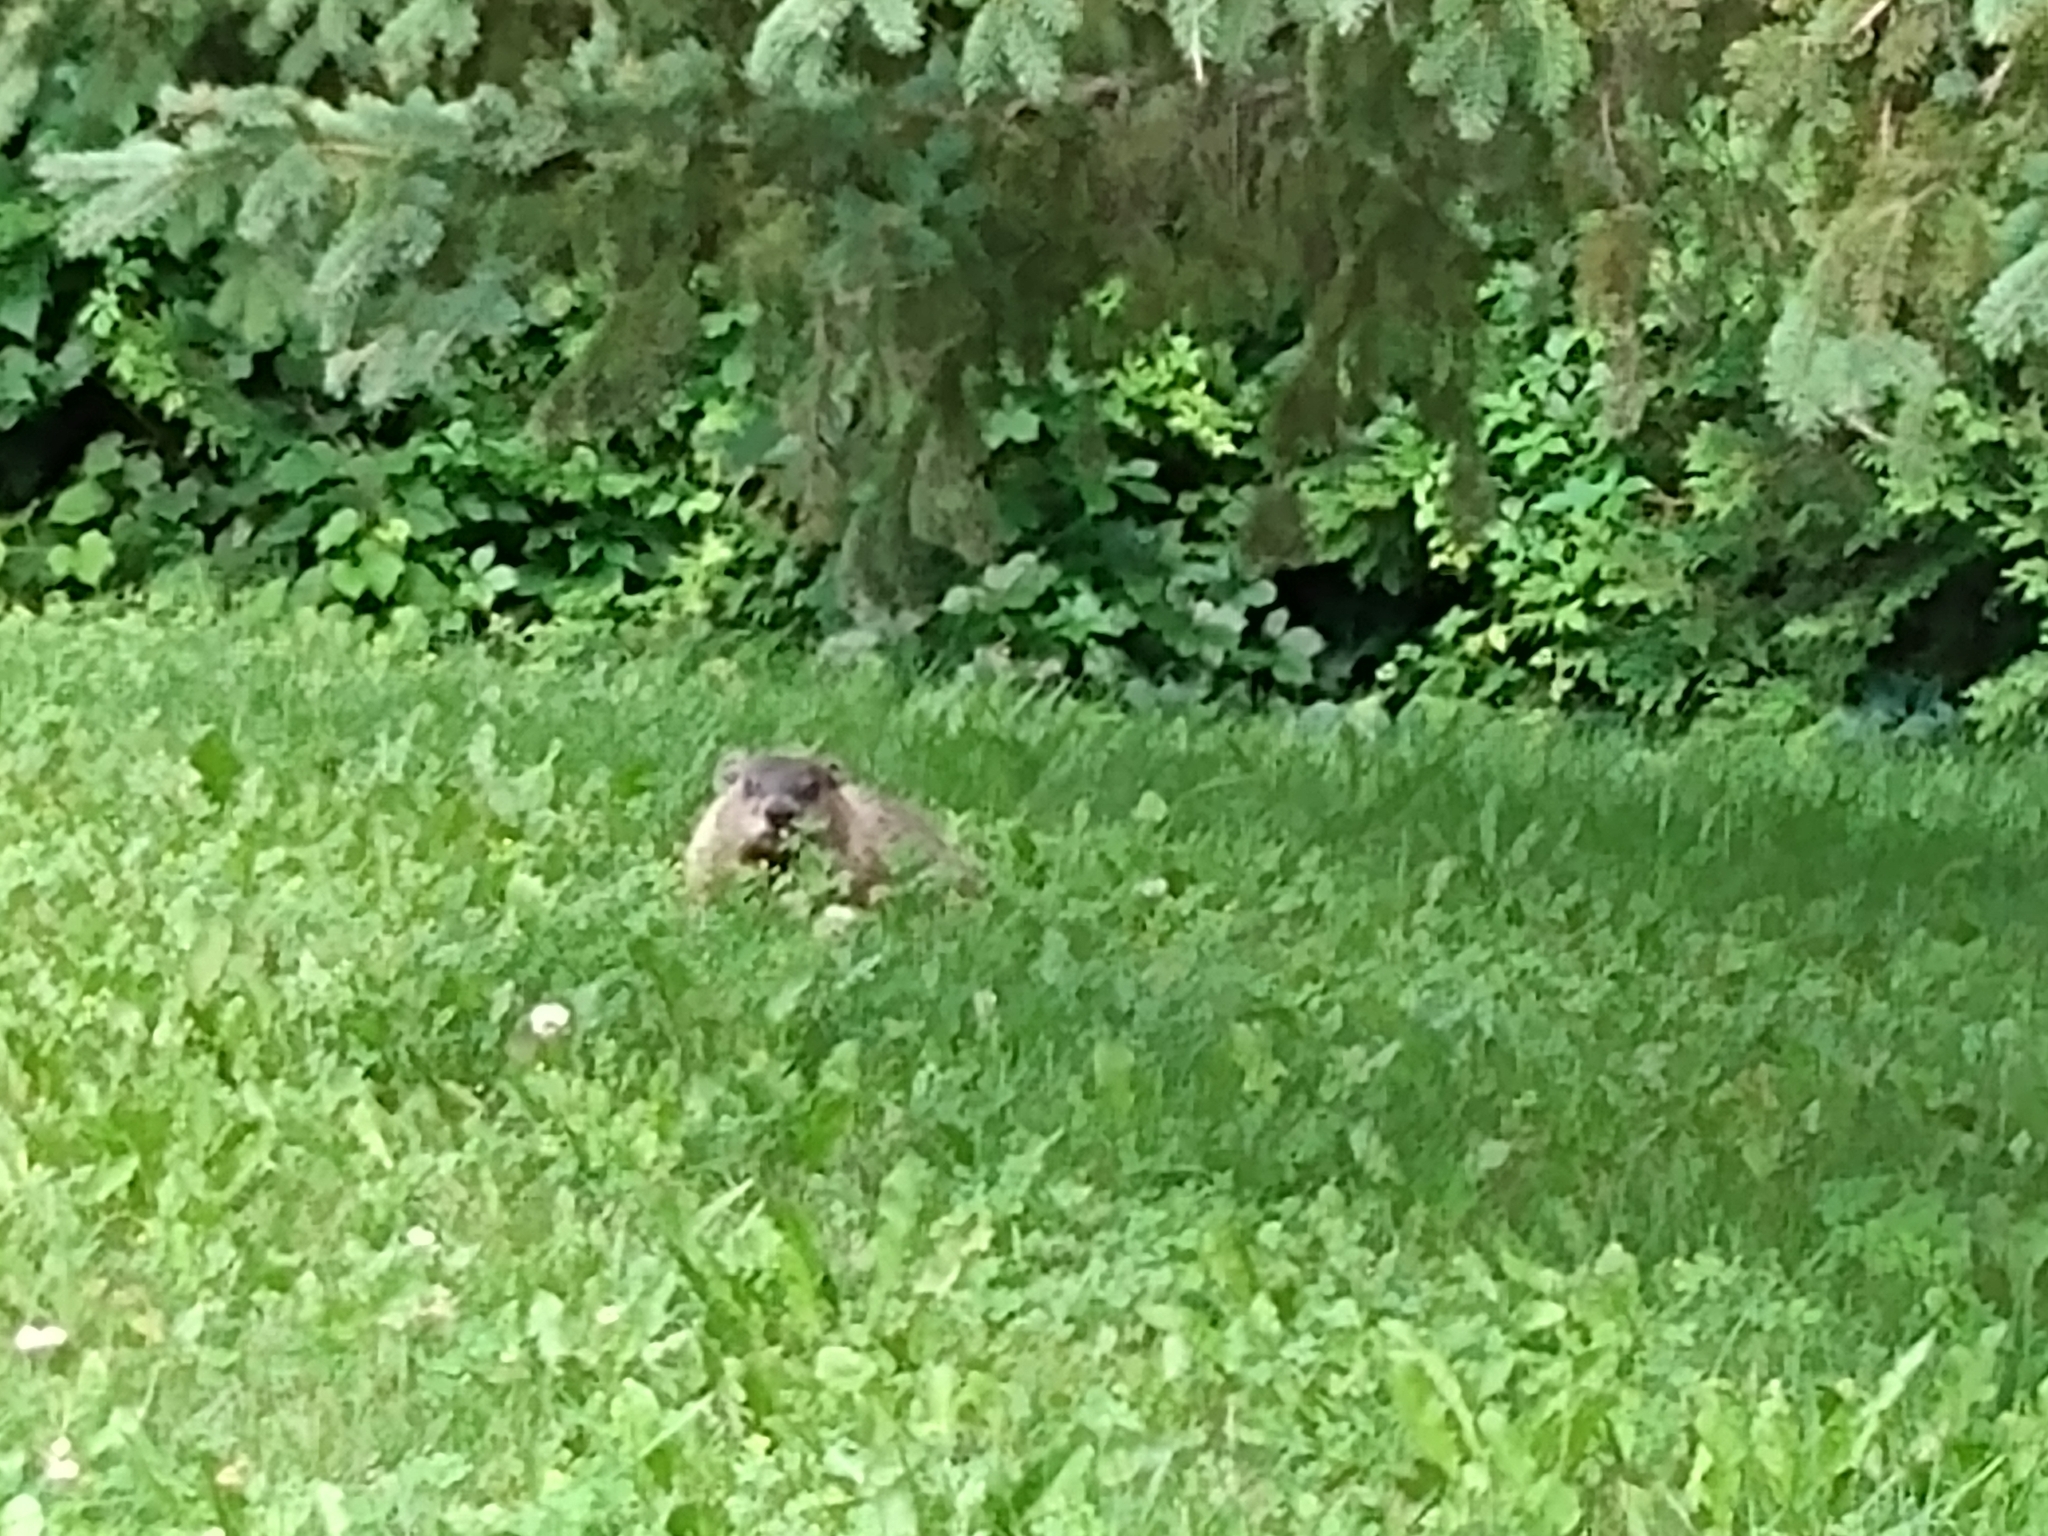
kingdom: Animalia
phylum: Chordata
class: Mammalia
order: Rodentia
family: Sciuridae
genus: Marmota
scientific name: Marmota monax
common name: Groundhog
